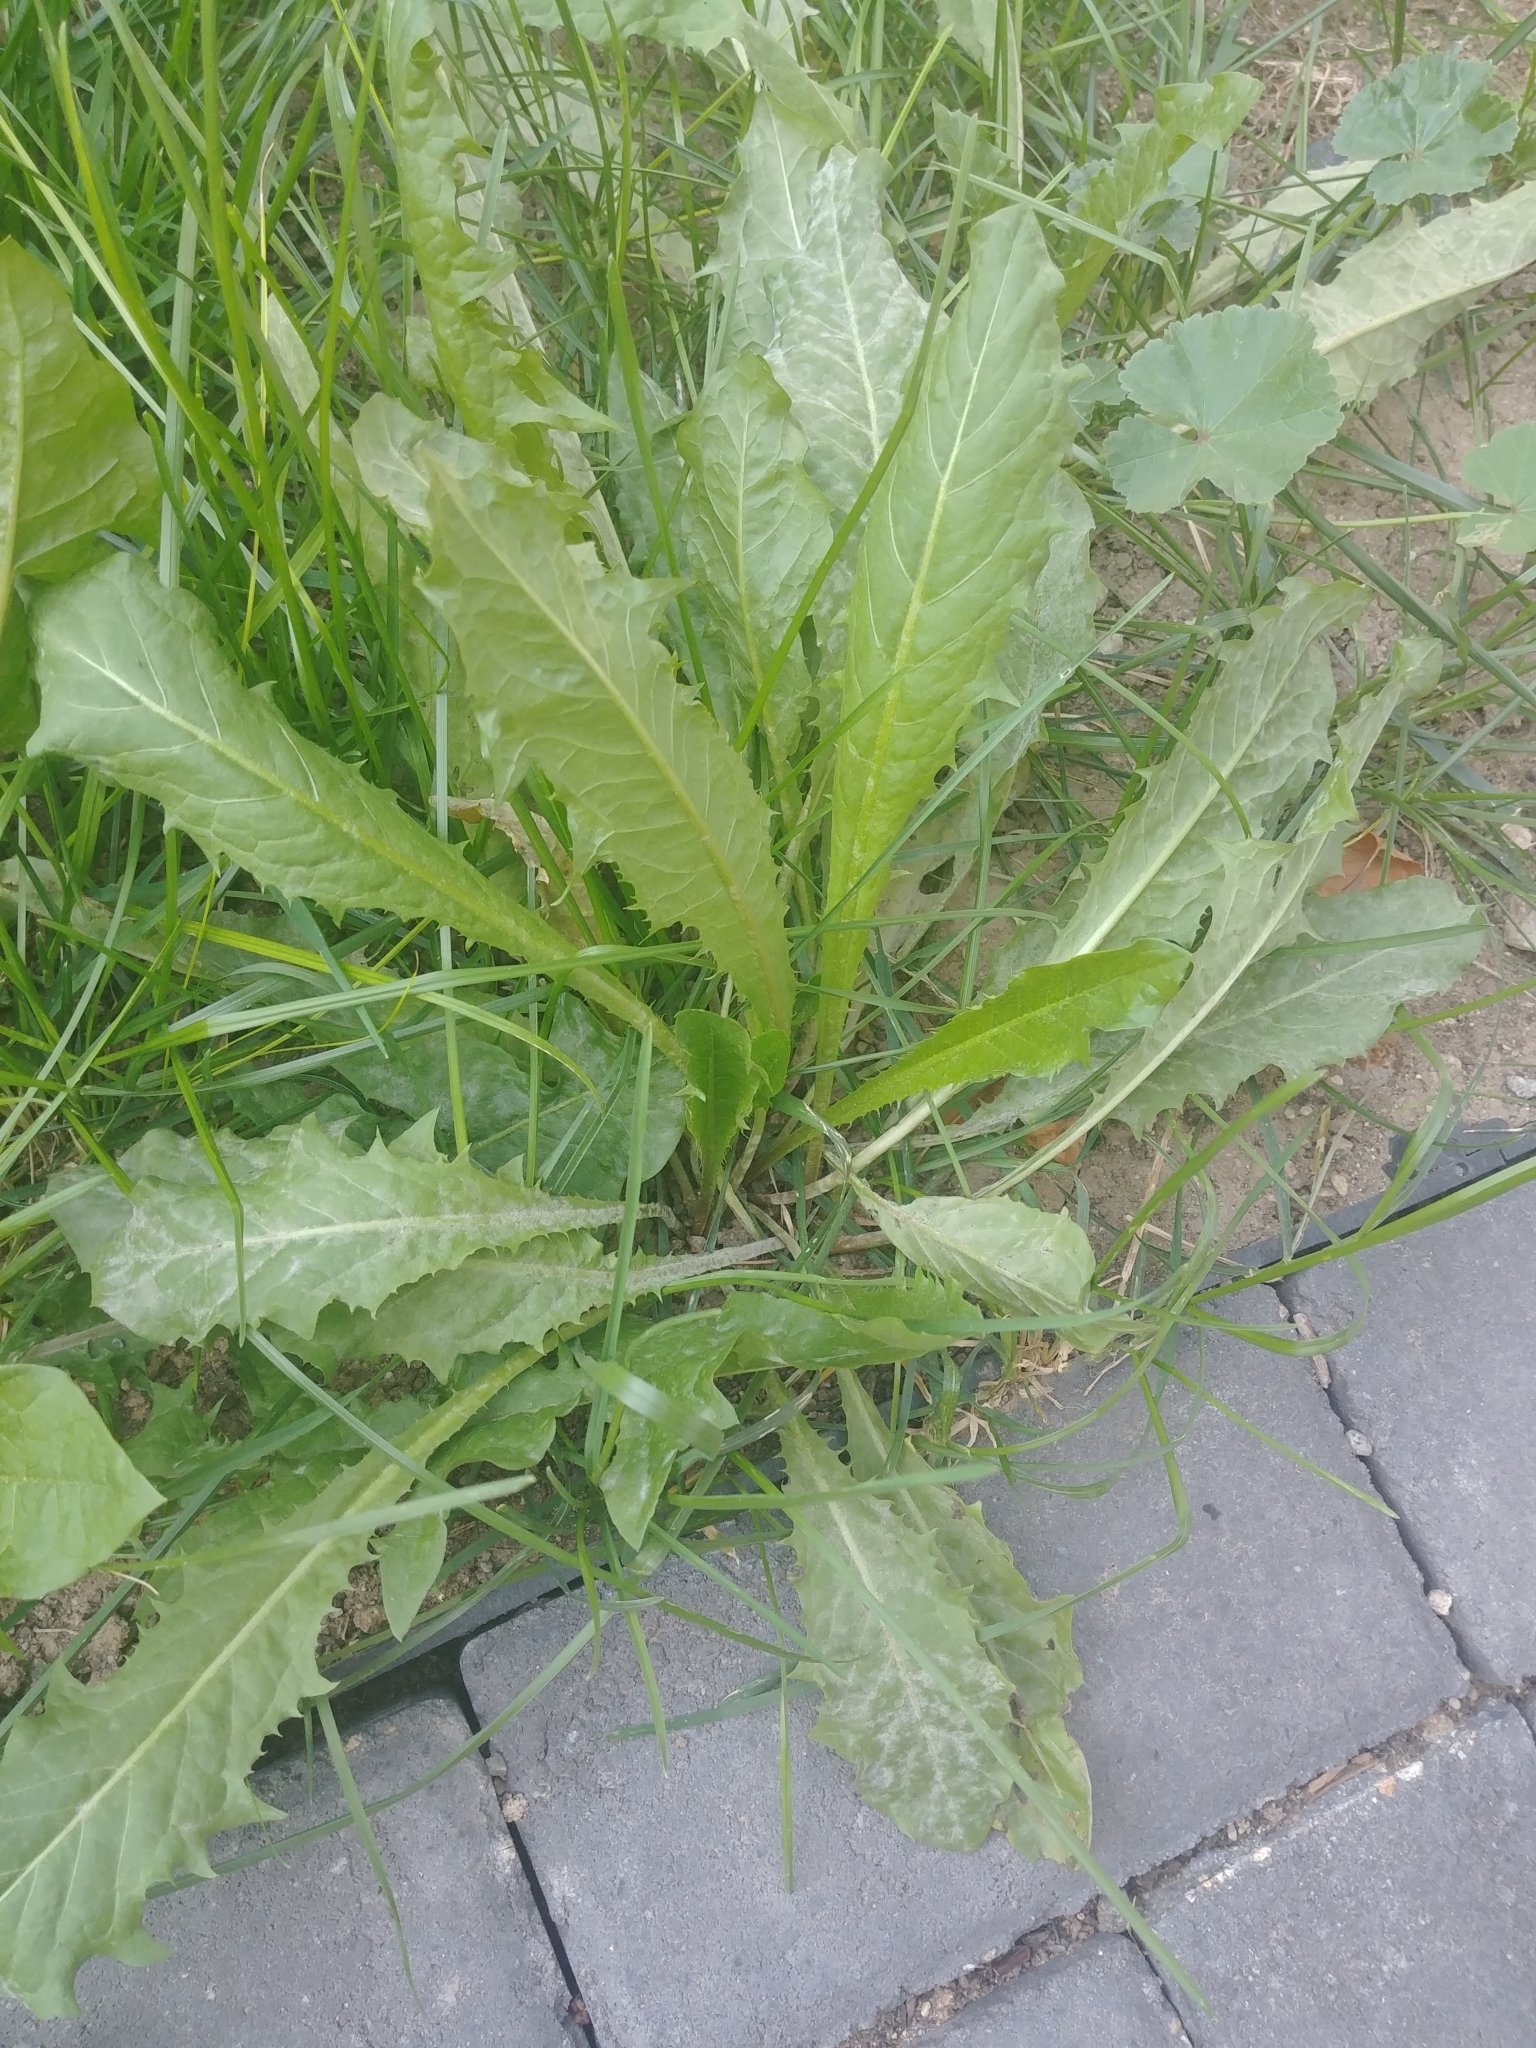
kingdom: Plantae
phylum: Tracheophyta
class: Magnoliopsida
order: Asterales
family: Asteraceae
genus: Taraxacum
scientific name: Taraxacum officinale
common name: Common dandelion
